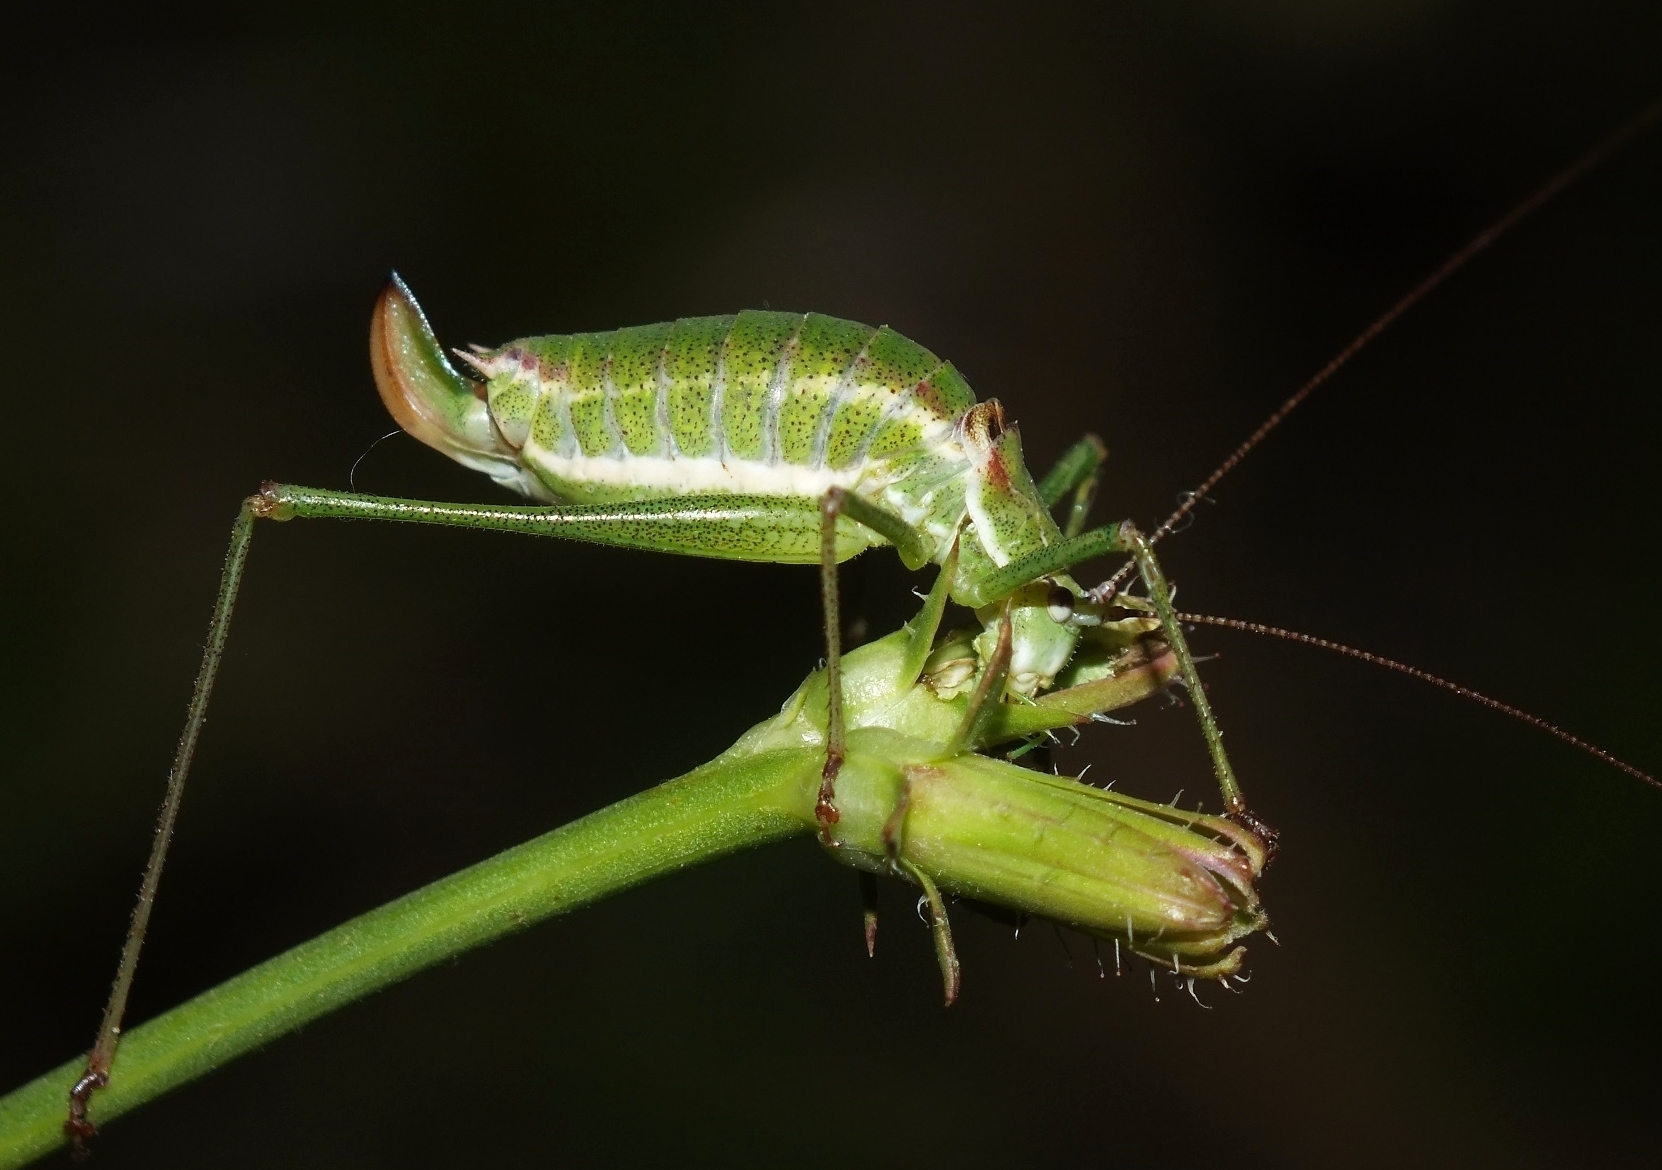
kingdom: Animalia
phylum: Arthropoda
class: Insecta
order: Orthoptera
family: Tettigoniidae
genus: Leptophyes
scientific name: Leptophyes albovittata
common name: Striped bush-cricket
